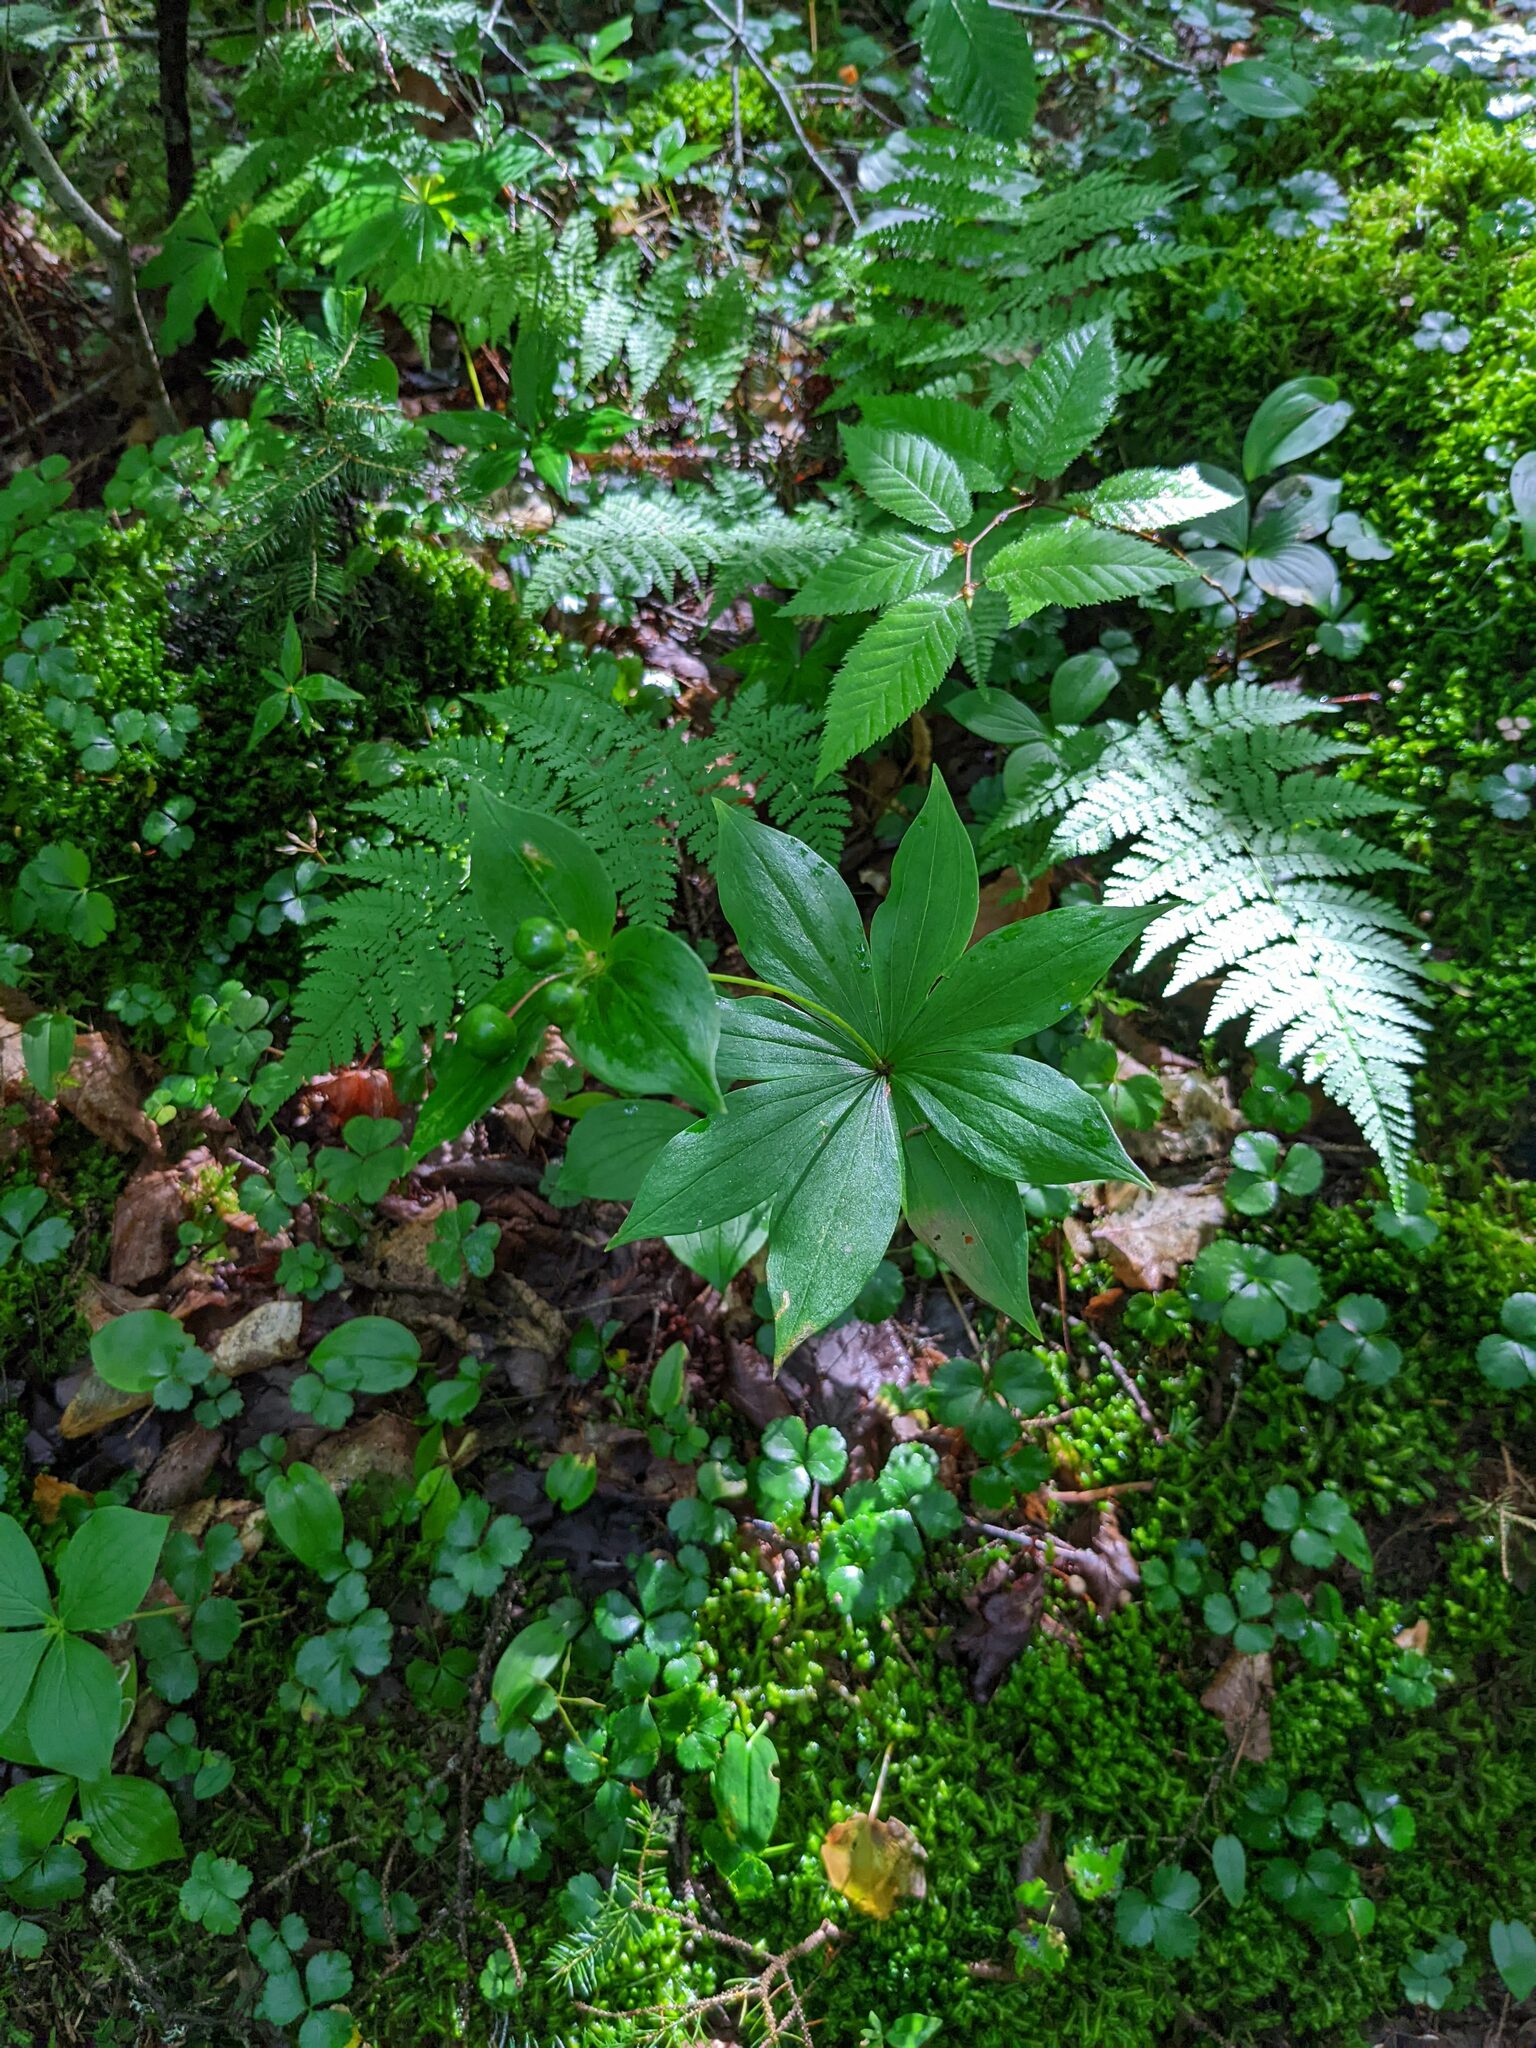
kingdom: Plantae
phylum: Tracheophyta
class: Liliopsida
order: Liliales
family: Liliaceae
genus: Medeola
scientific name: Medeola virginiana
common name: Indian cucumber-root
